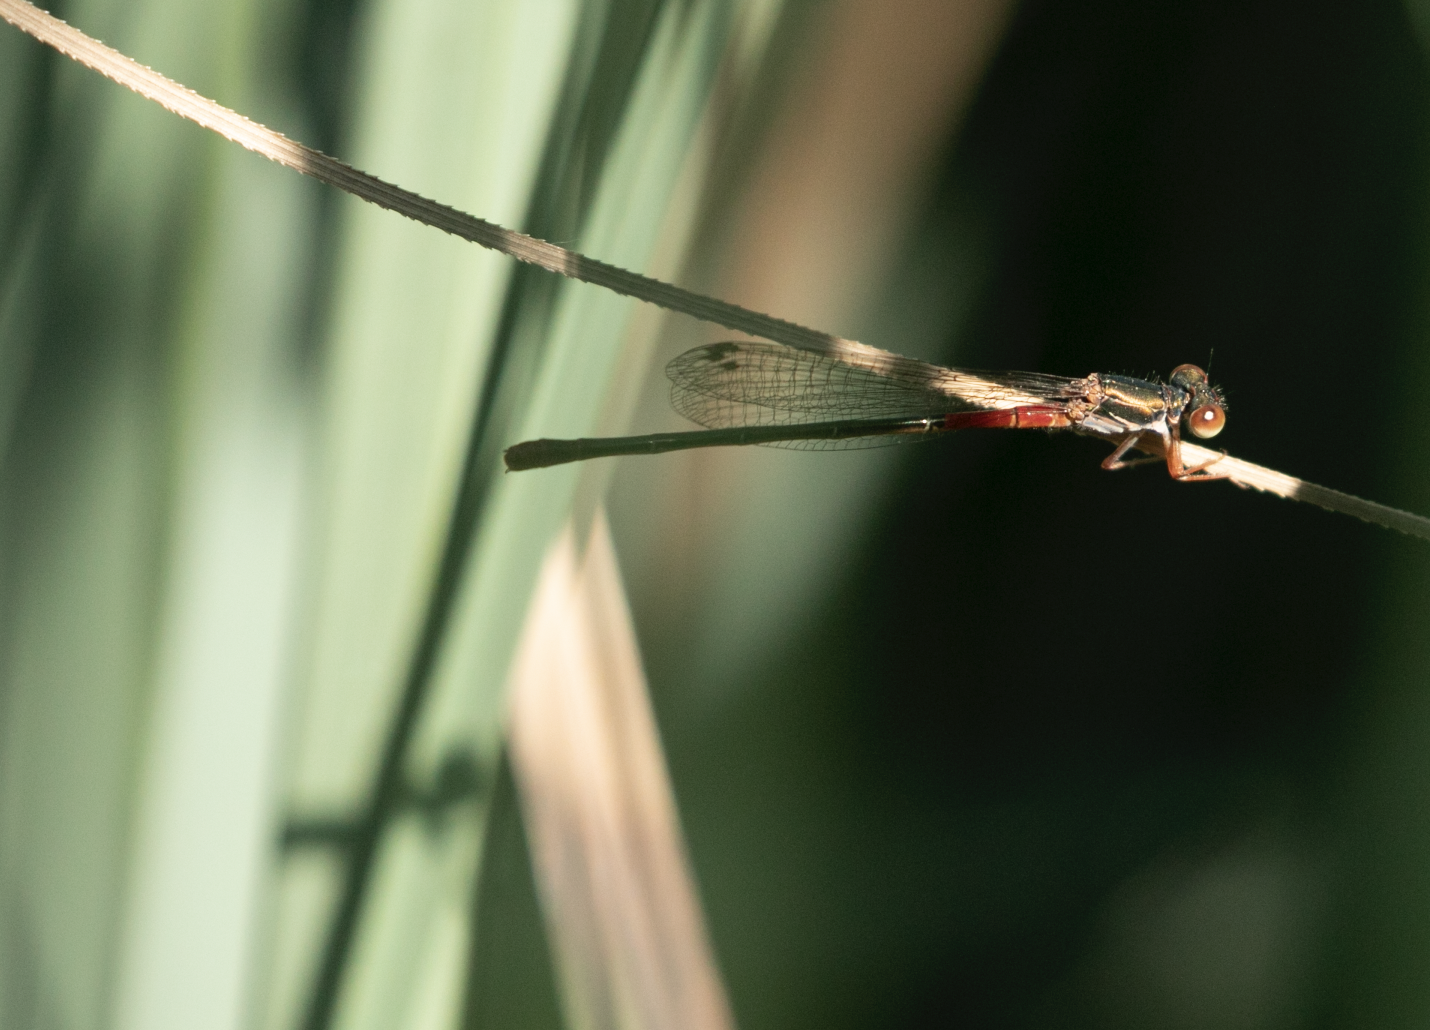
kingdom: Animalia
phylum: Arthropoda
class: Insecta
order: Odonata
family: Coenagrionidae
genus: Ceriagrion
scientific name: Ceriagrion tenellum
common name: Small red damselfly
